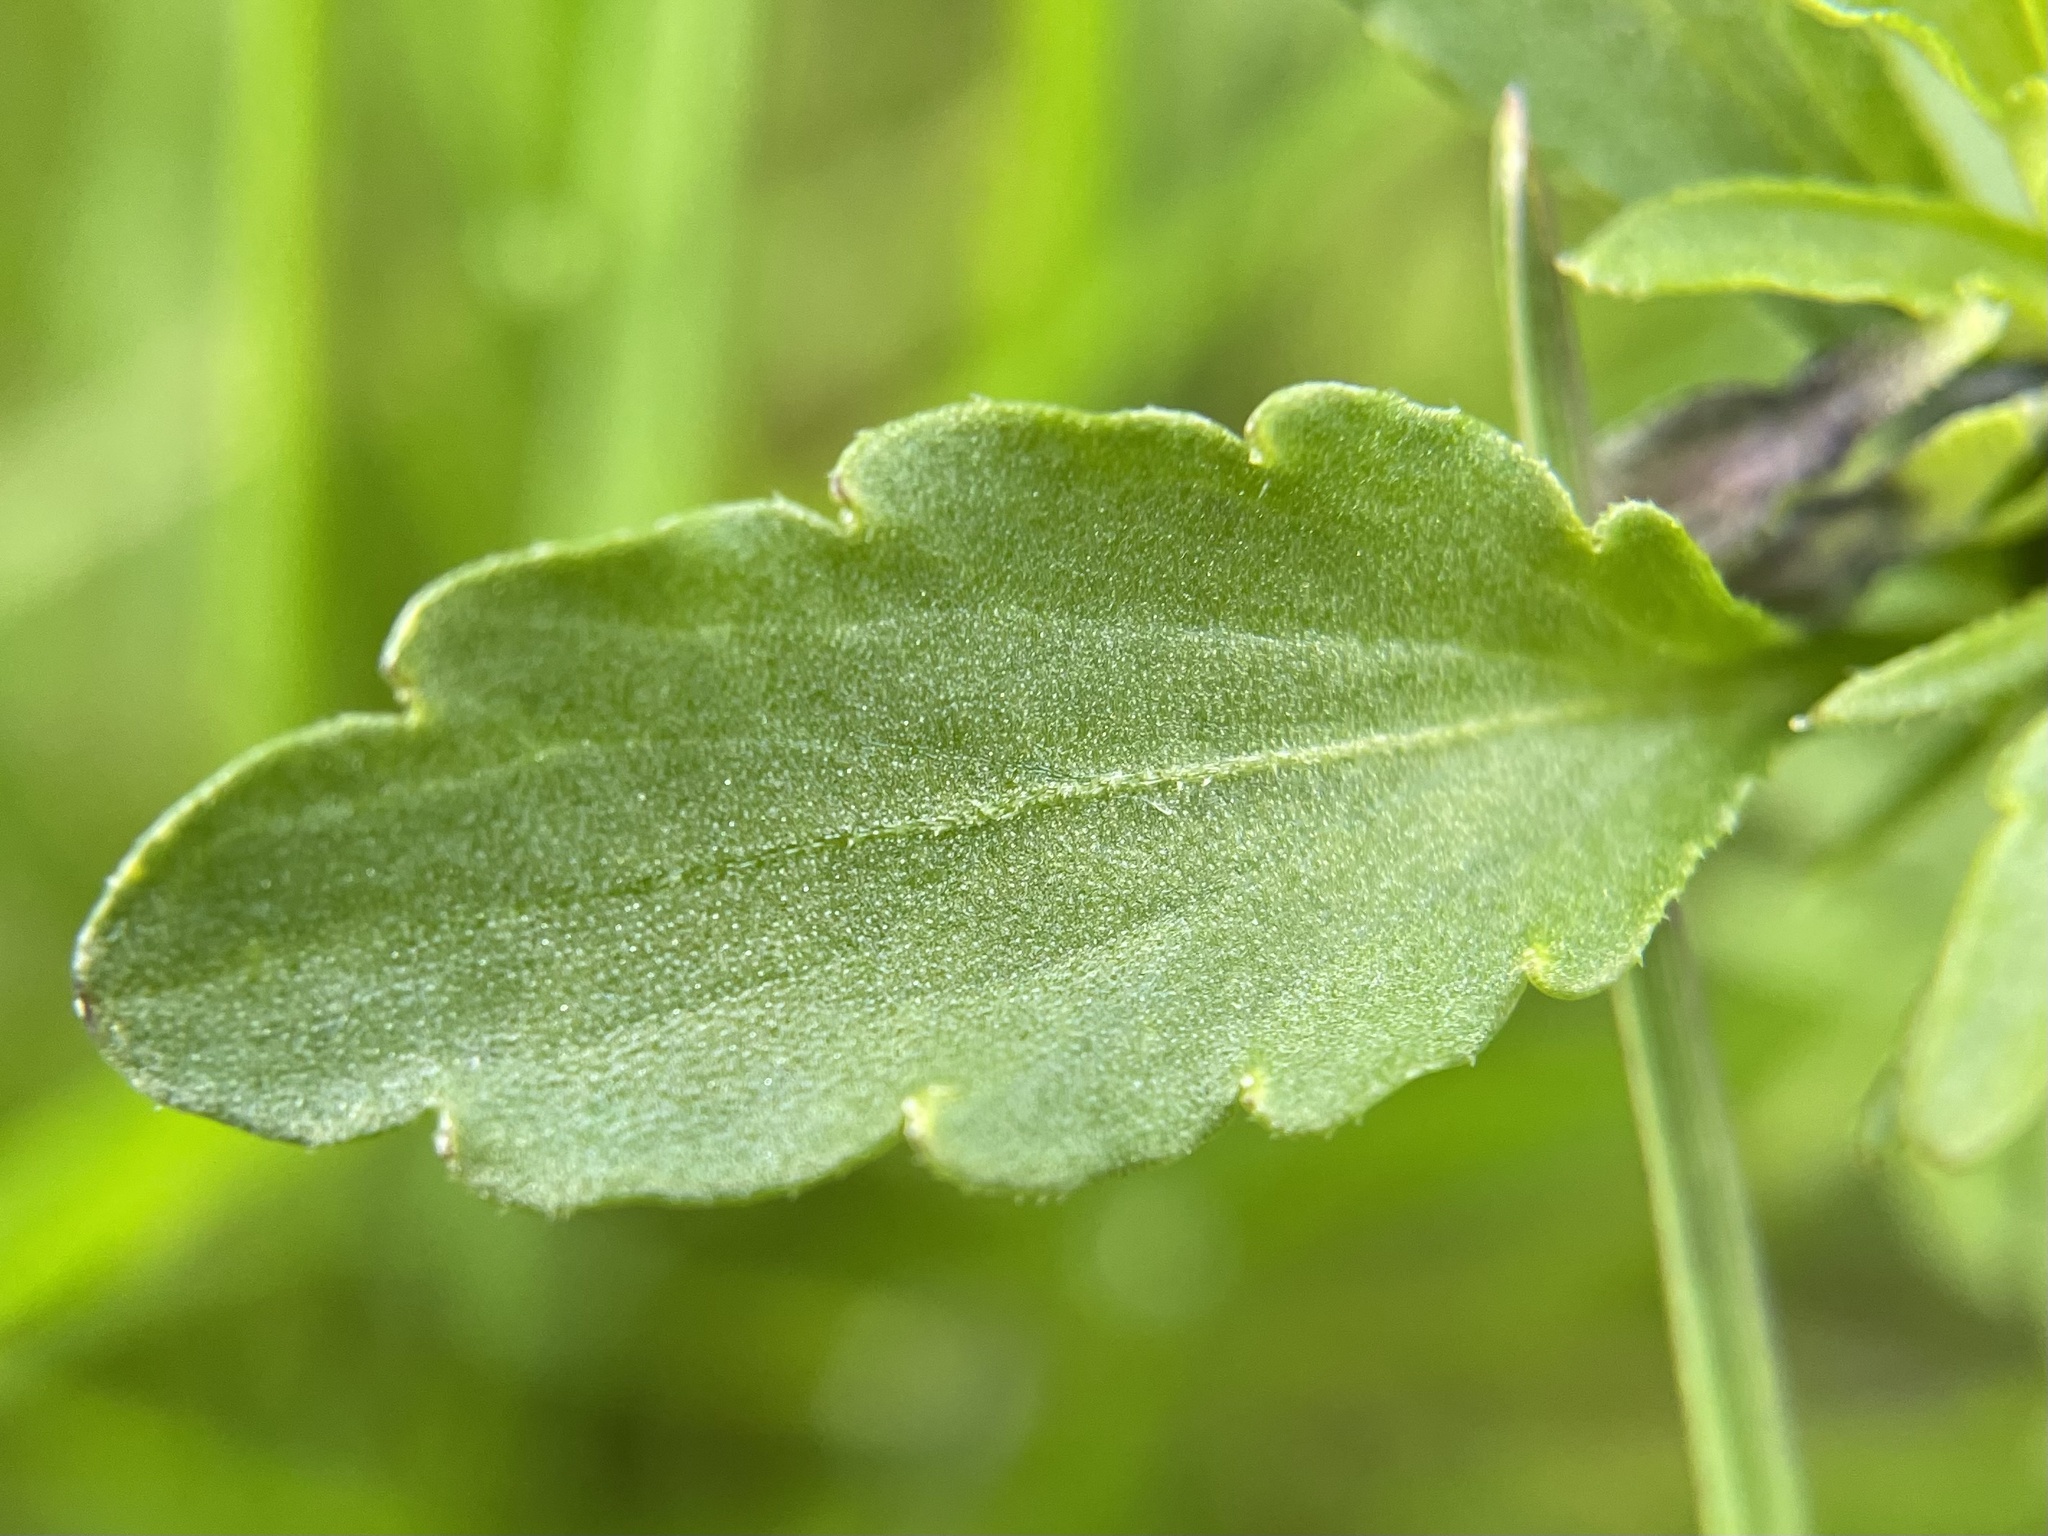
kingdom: Plantae
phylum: Tracheophyta
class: Magnoliopsida
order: Malpighiales
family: Violaceae
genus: Viola
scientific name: Viola arvensis
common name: Field pansy
